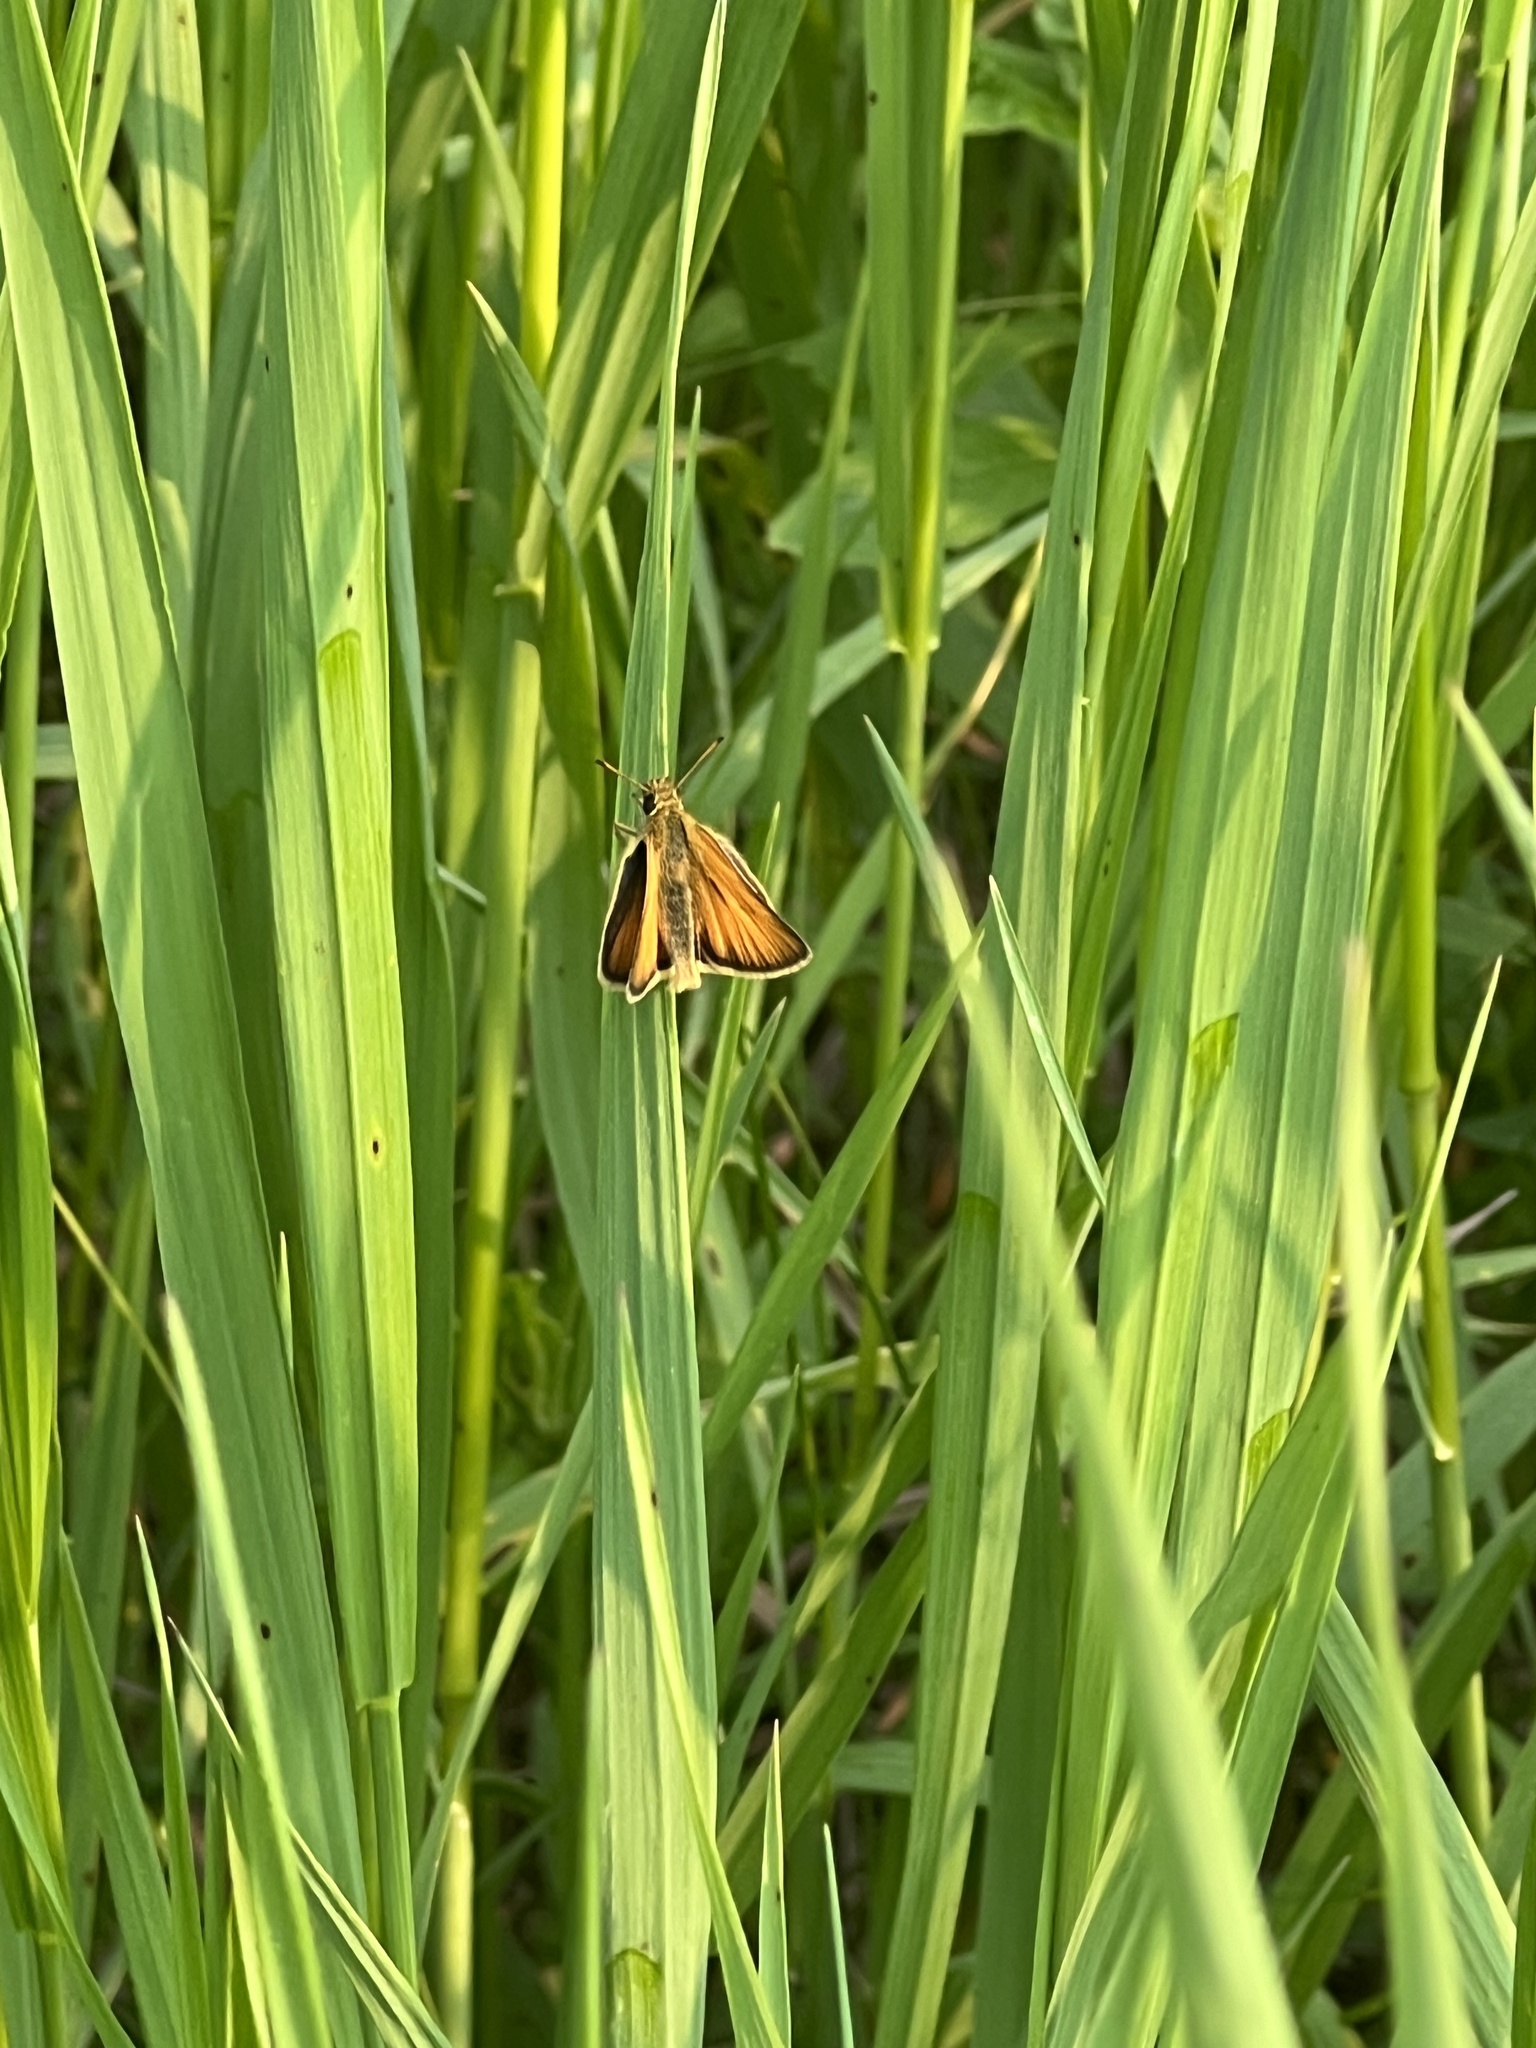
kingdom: Animalia
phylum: Arthropoda
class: Insecta
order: Lepidoptera
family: Hesperiidae
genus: Thymelicus
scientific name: Thymelicus lineola
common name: Essex skipper
